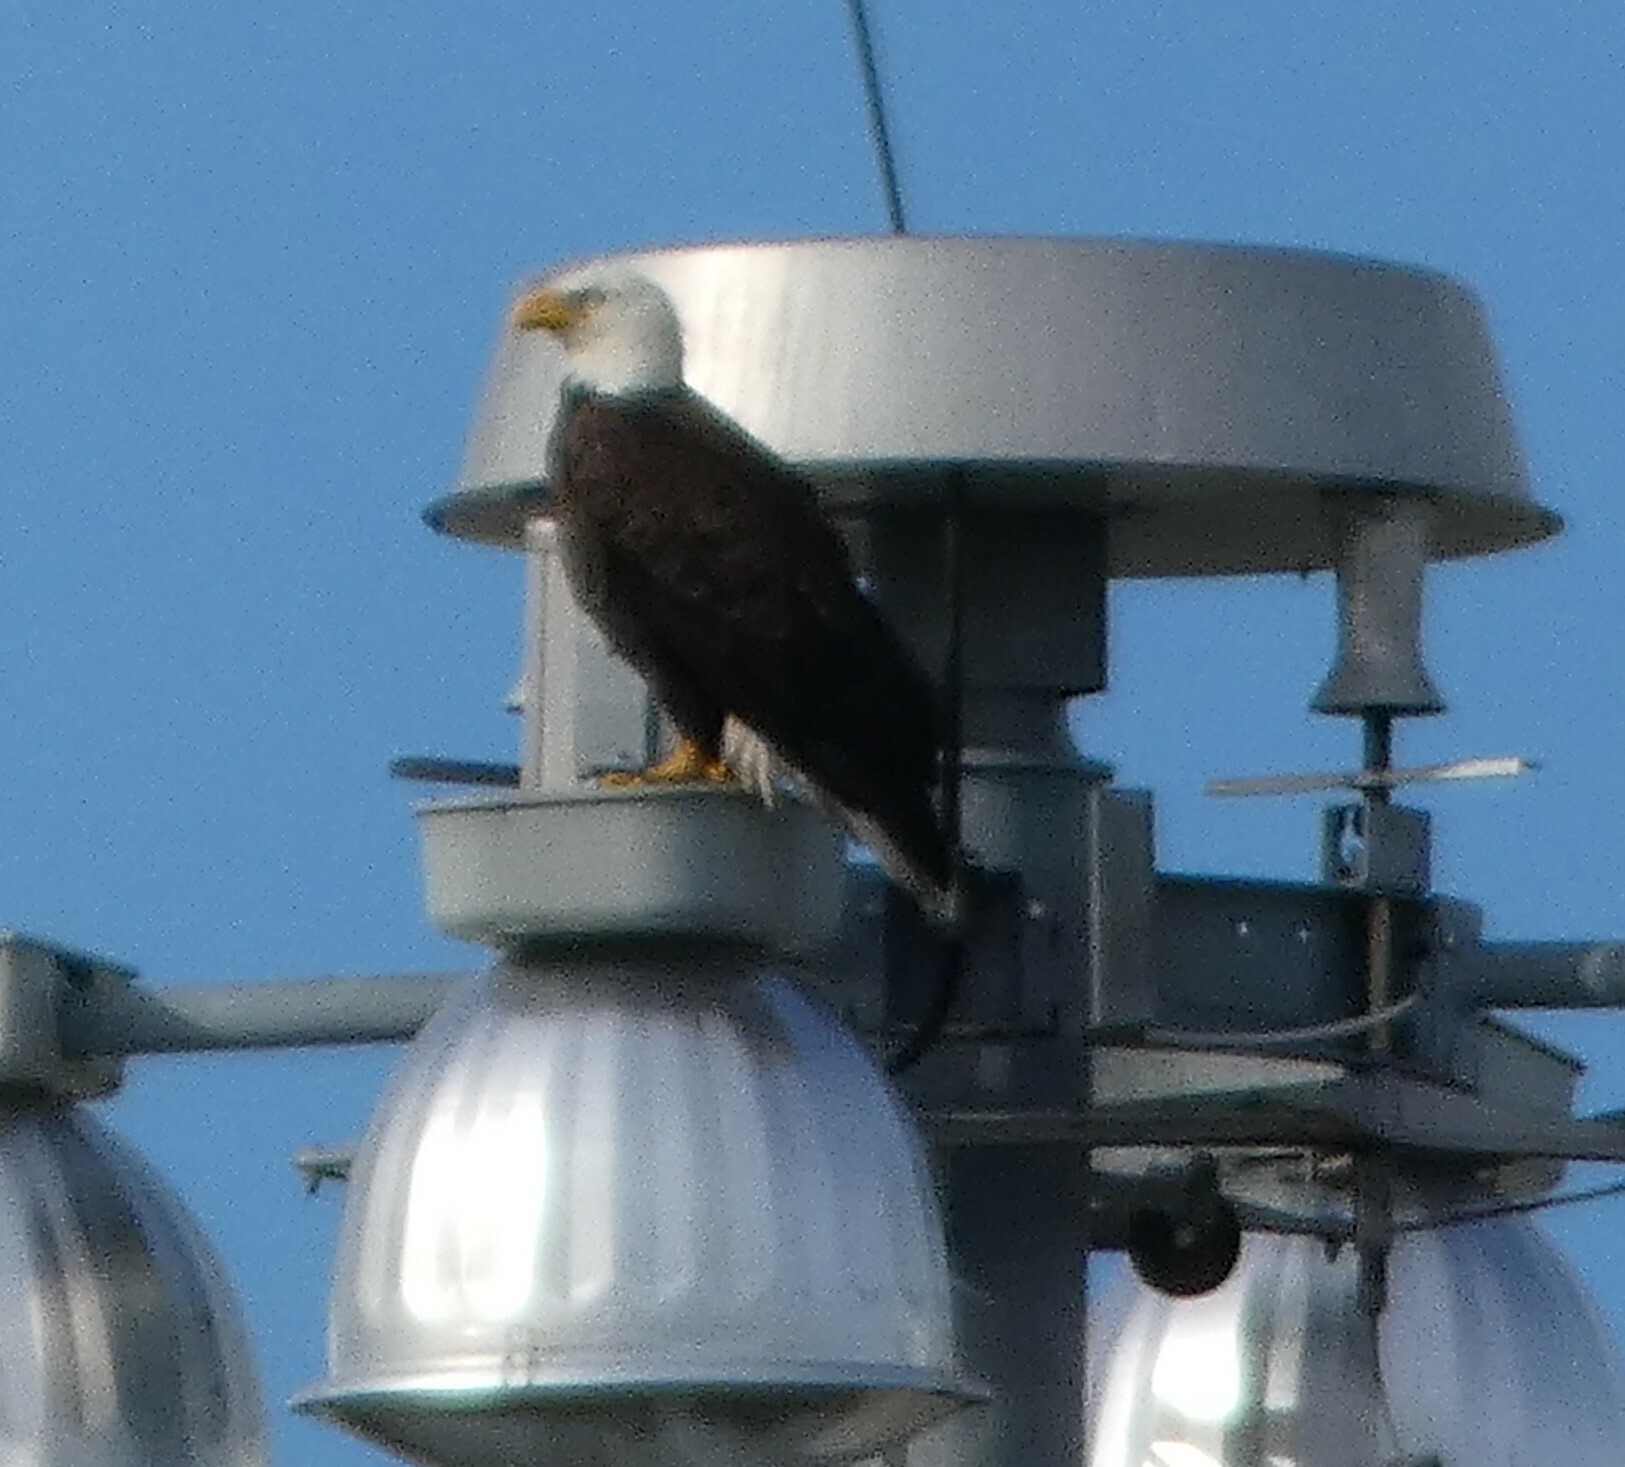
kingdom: Animalia
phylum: Chordata
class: Aves
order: Accipitriformes
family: Accipitridae
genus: Haliaeetus
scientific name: Haliaeetus leucocephalus
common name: Bald eagle
